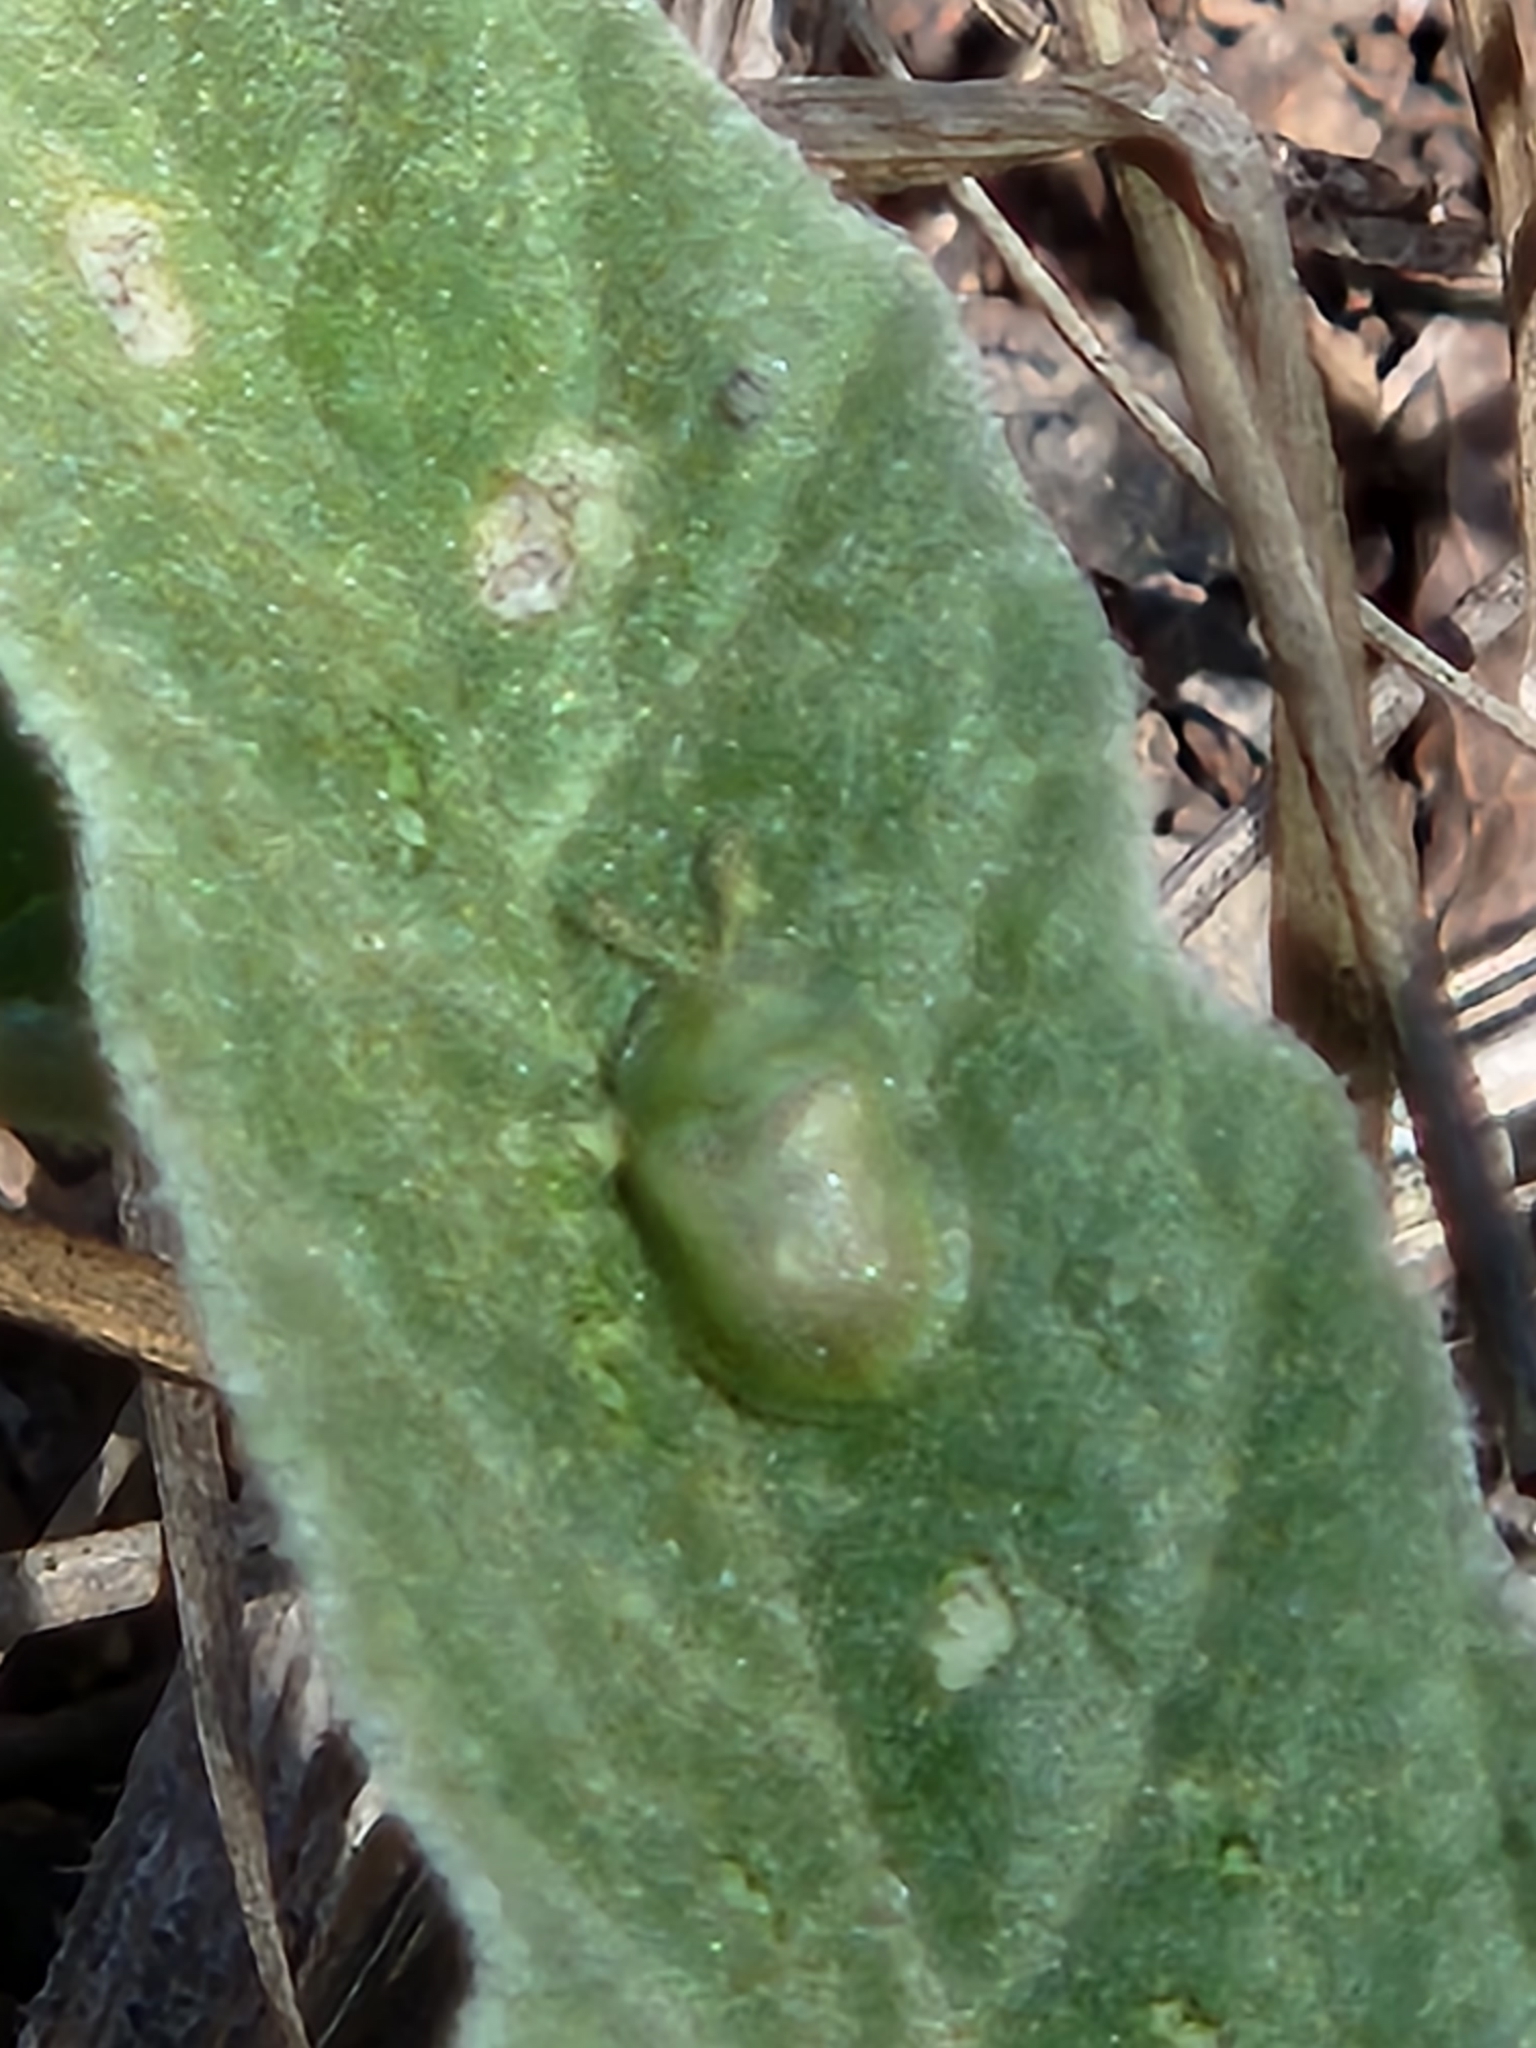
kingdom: Animalia
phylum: Arthropoda
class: Insecta
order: Coleoptera
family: Chrysomelidae
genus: Gratiana
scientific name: Gratiana pallidula
